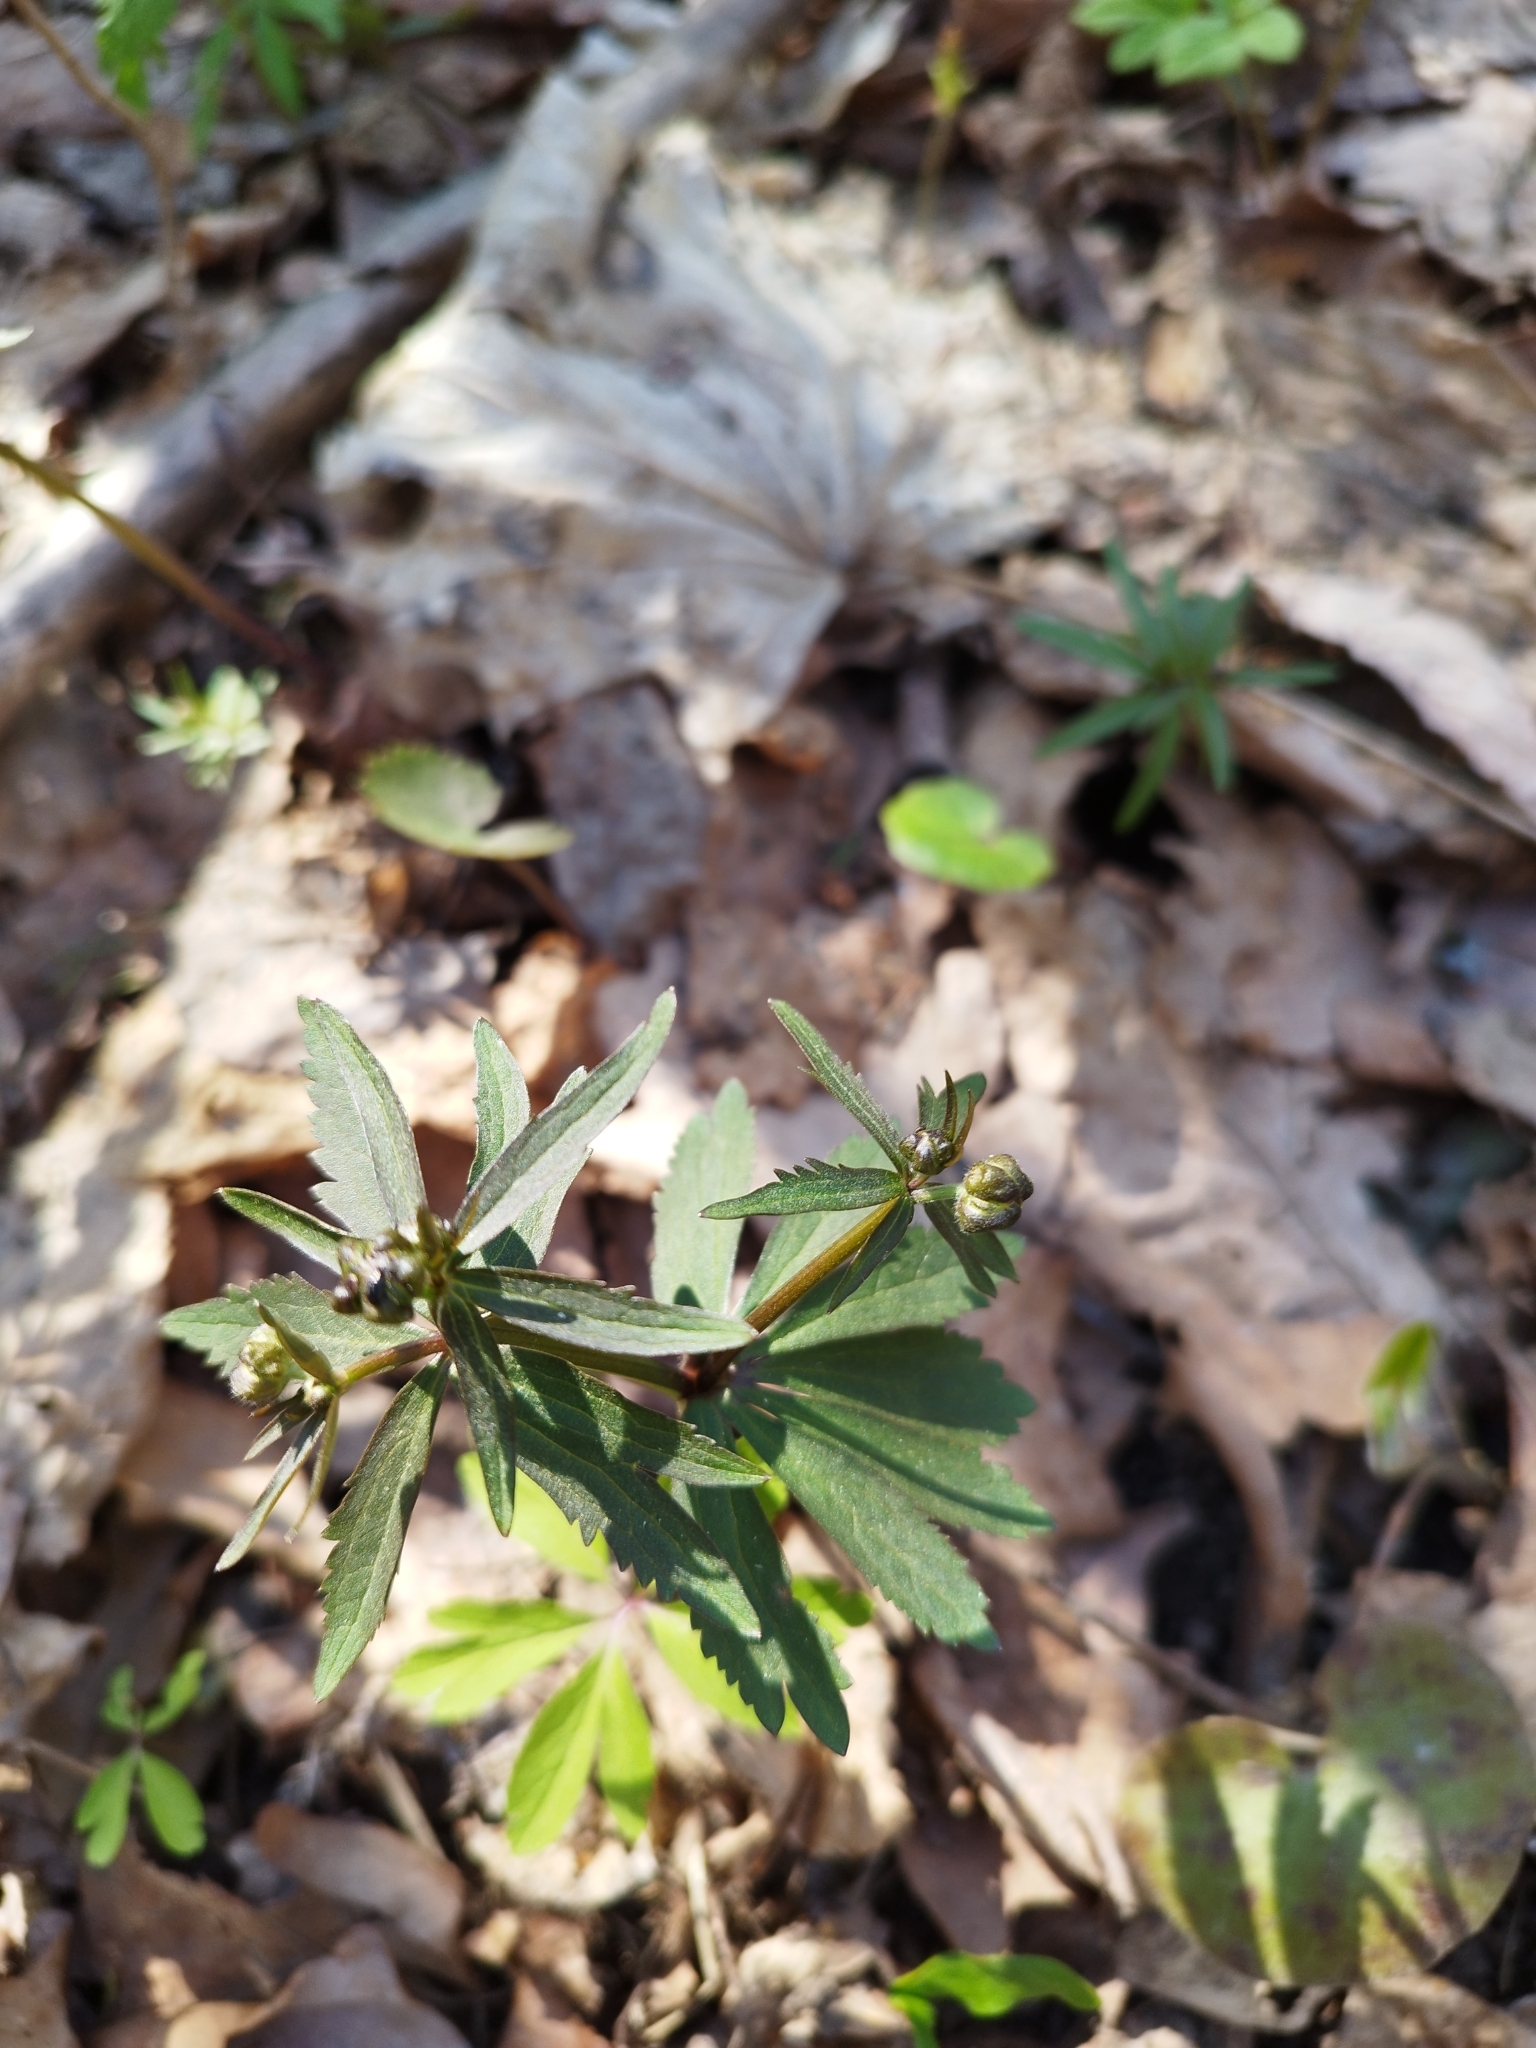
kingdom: Plantae
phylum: Tracheophyta
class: Magnoliopsida
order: Ranunculales
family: Ranunculaceae
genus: Ranunculus
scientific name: Ranunculus cassubicus
